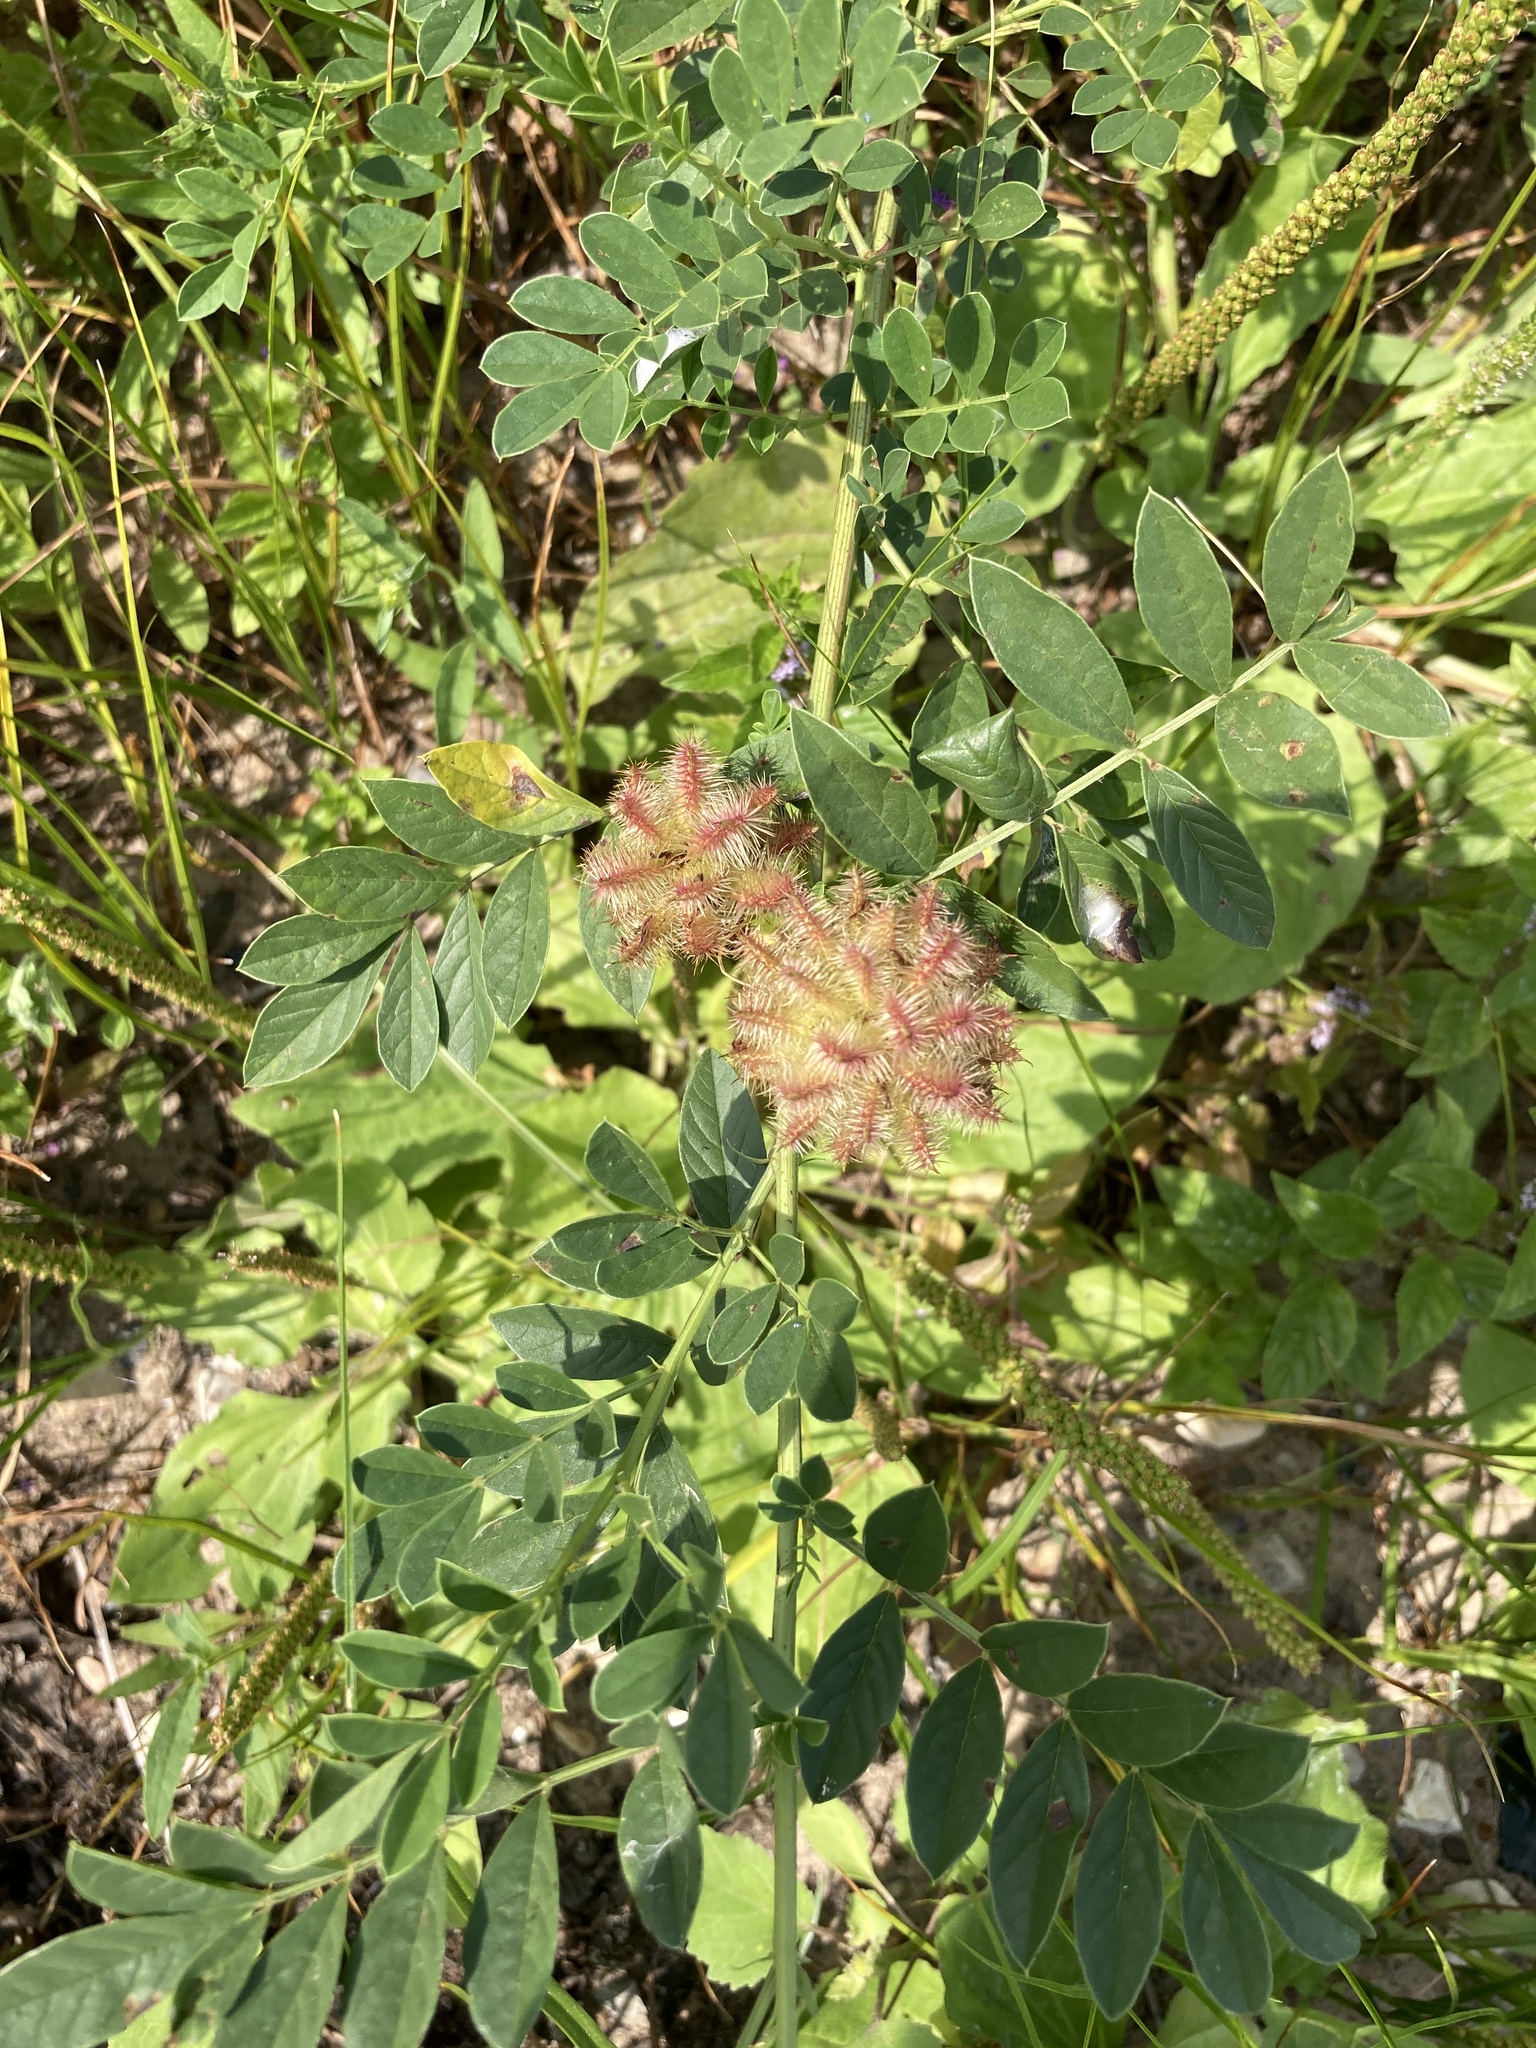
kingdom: Plantae
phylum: Tracheophyta
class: Magnoliopsida
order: Fabales
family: Fabaceae
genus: Glycyrrhiza
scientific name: Glycyrrhiza echinata
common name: German liquorice
